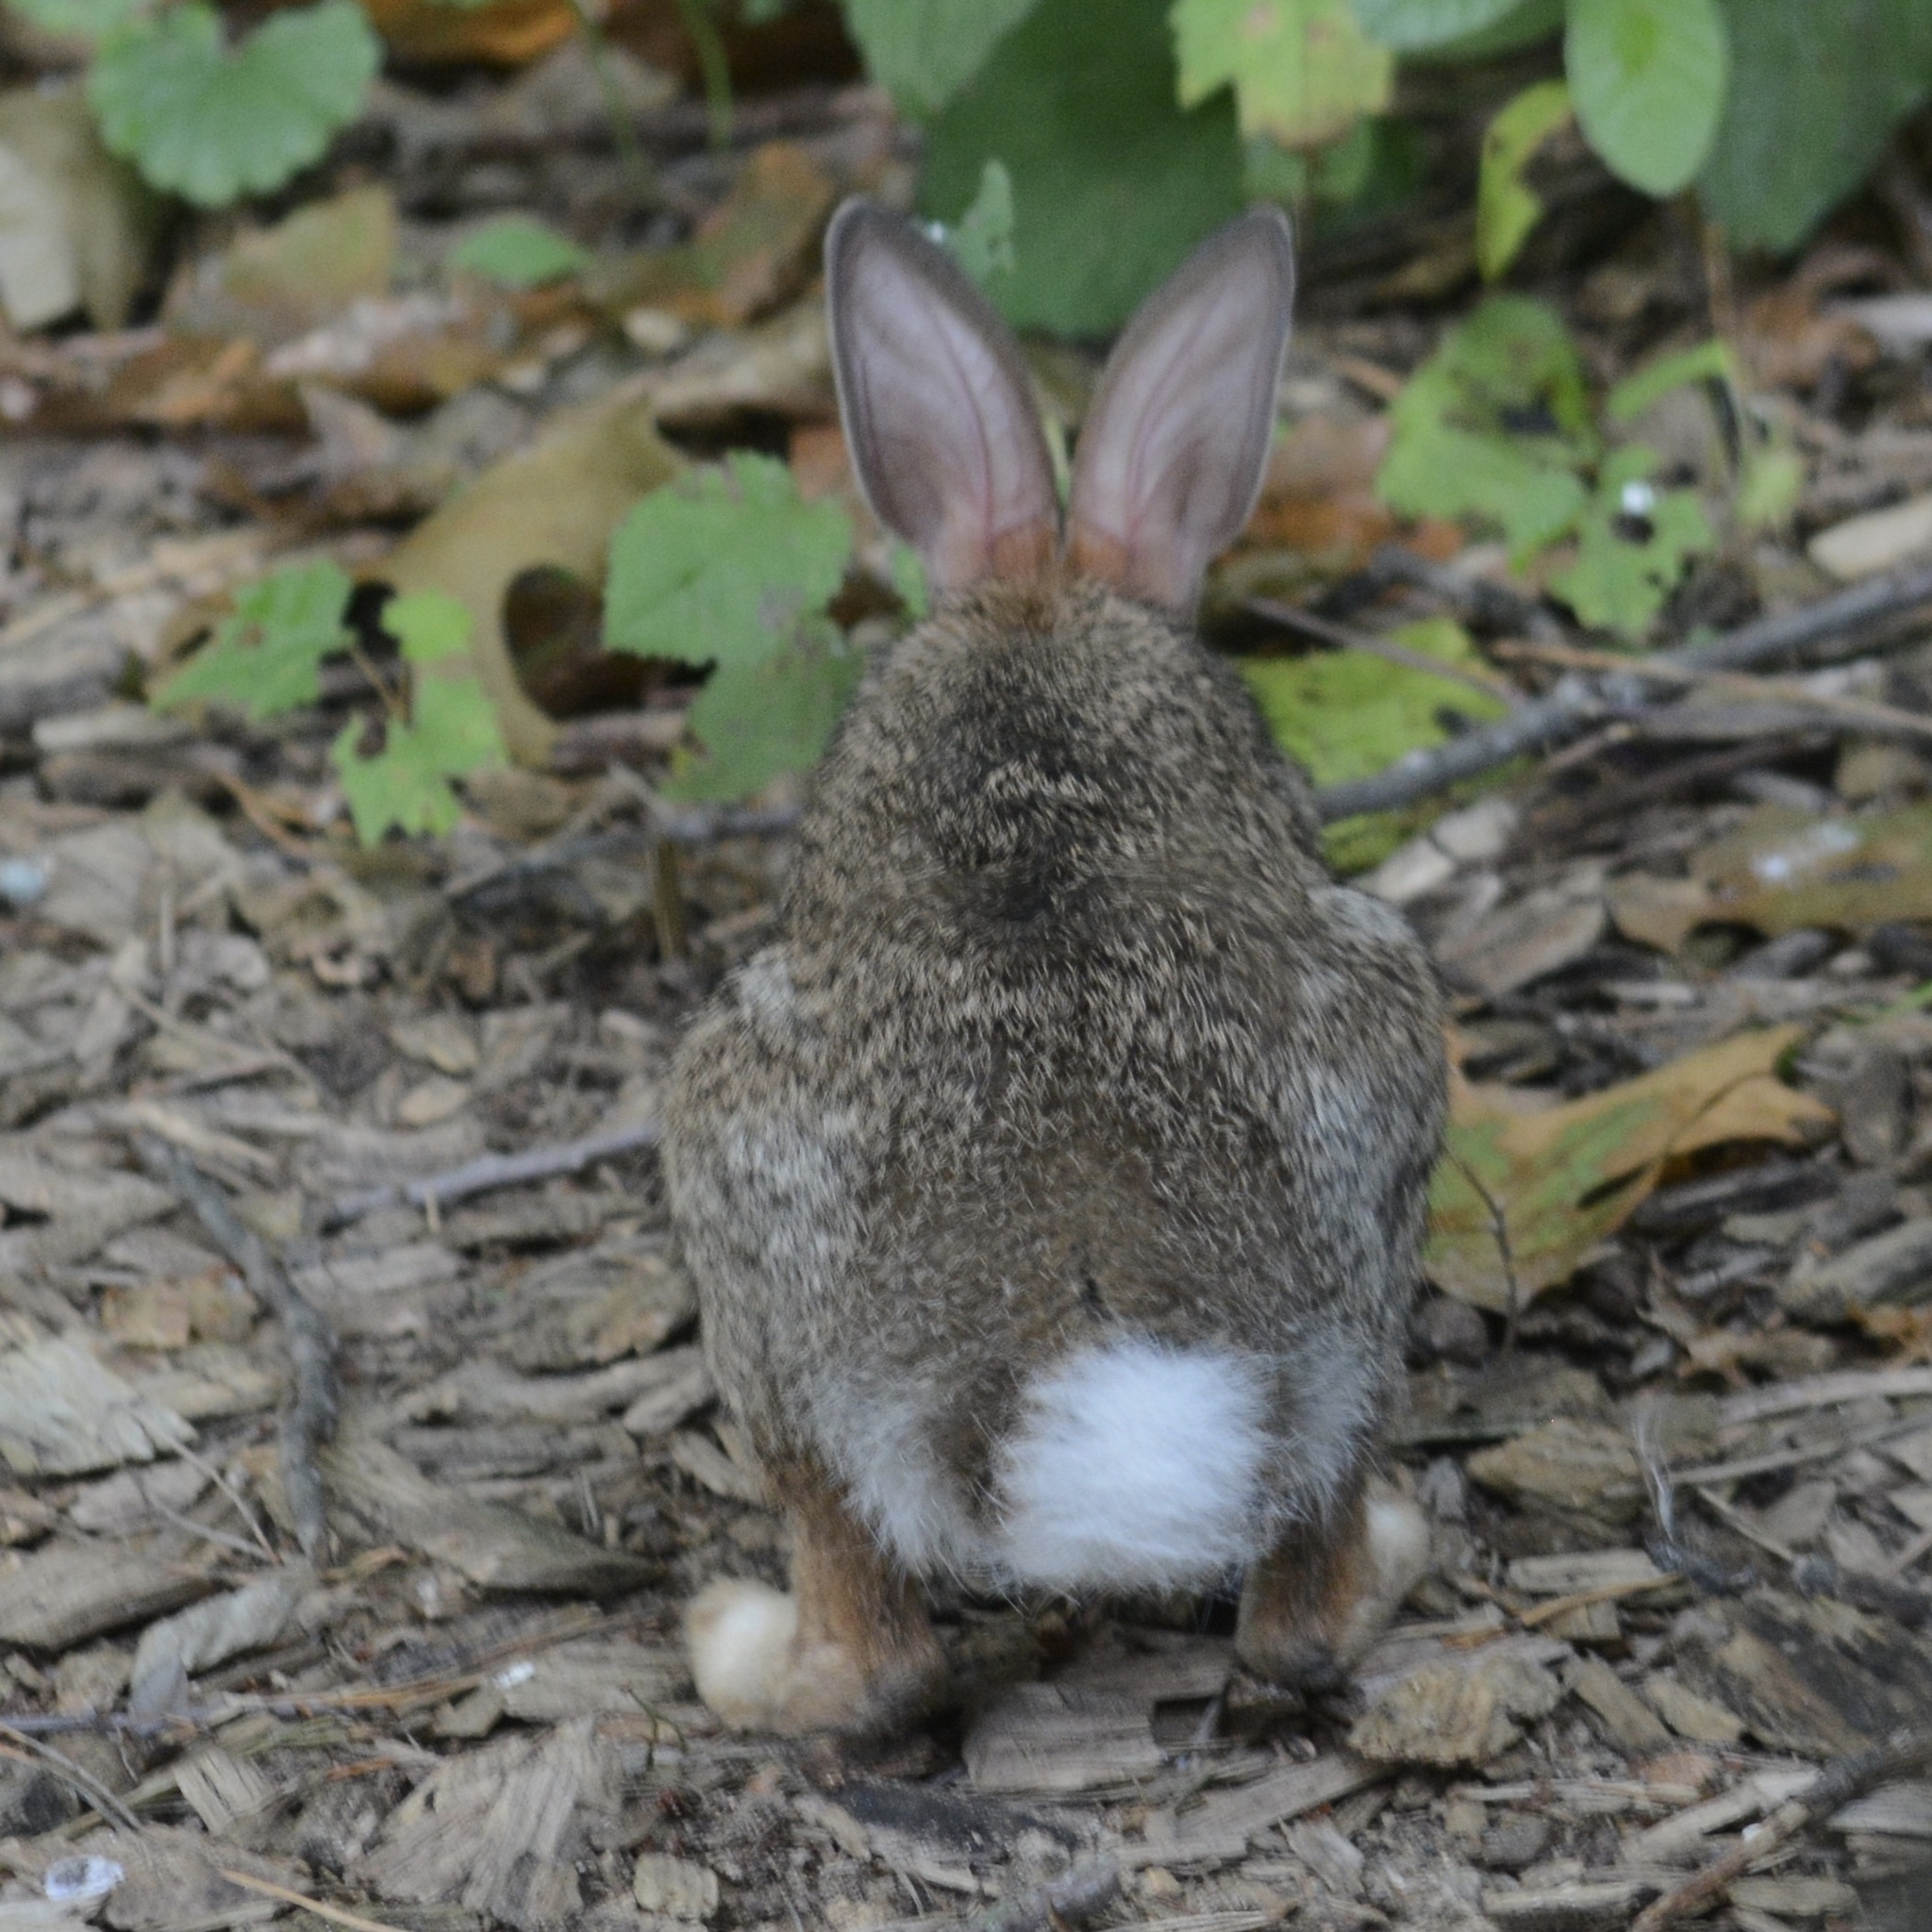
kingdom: Animalia
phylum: Chordata
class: Mammalia
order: Lagomorpha
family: Leporidae
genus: Sylvilagus
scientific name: Sylvilagus floridanus
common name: Eastern cottontail
